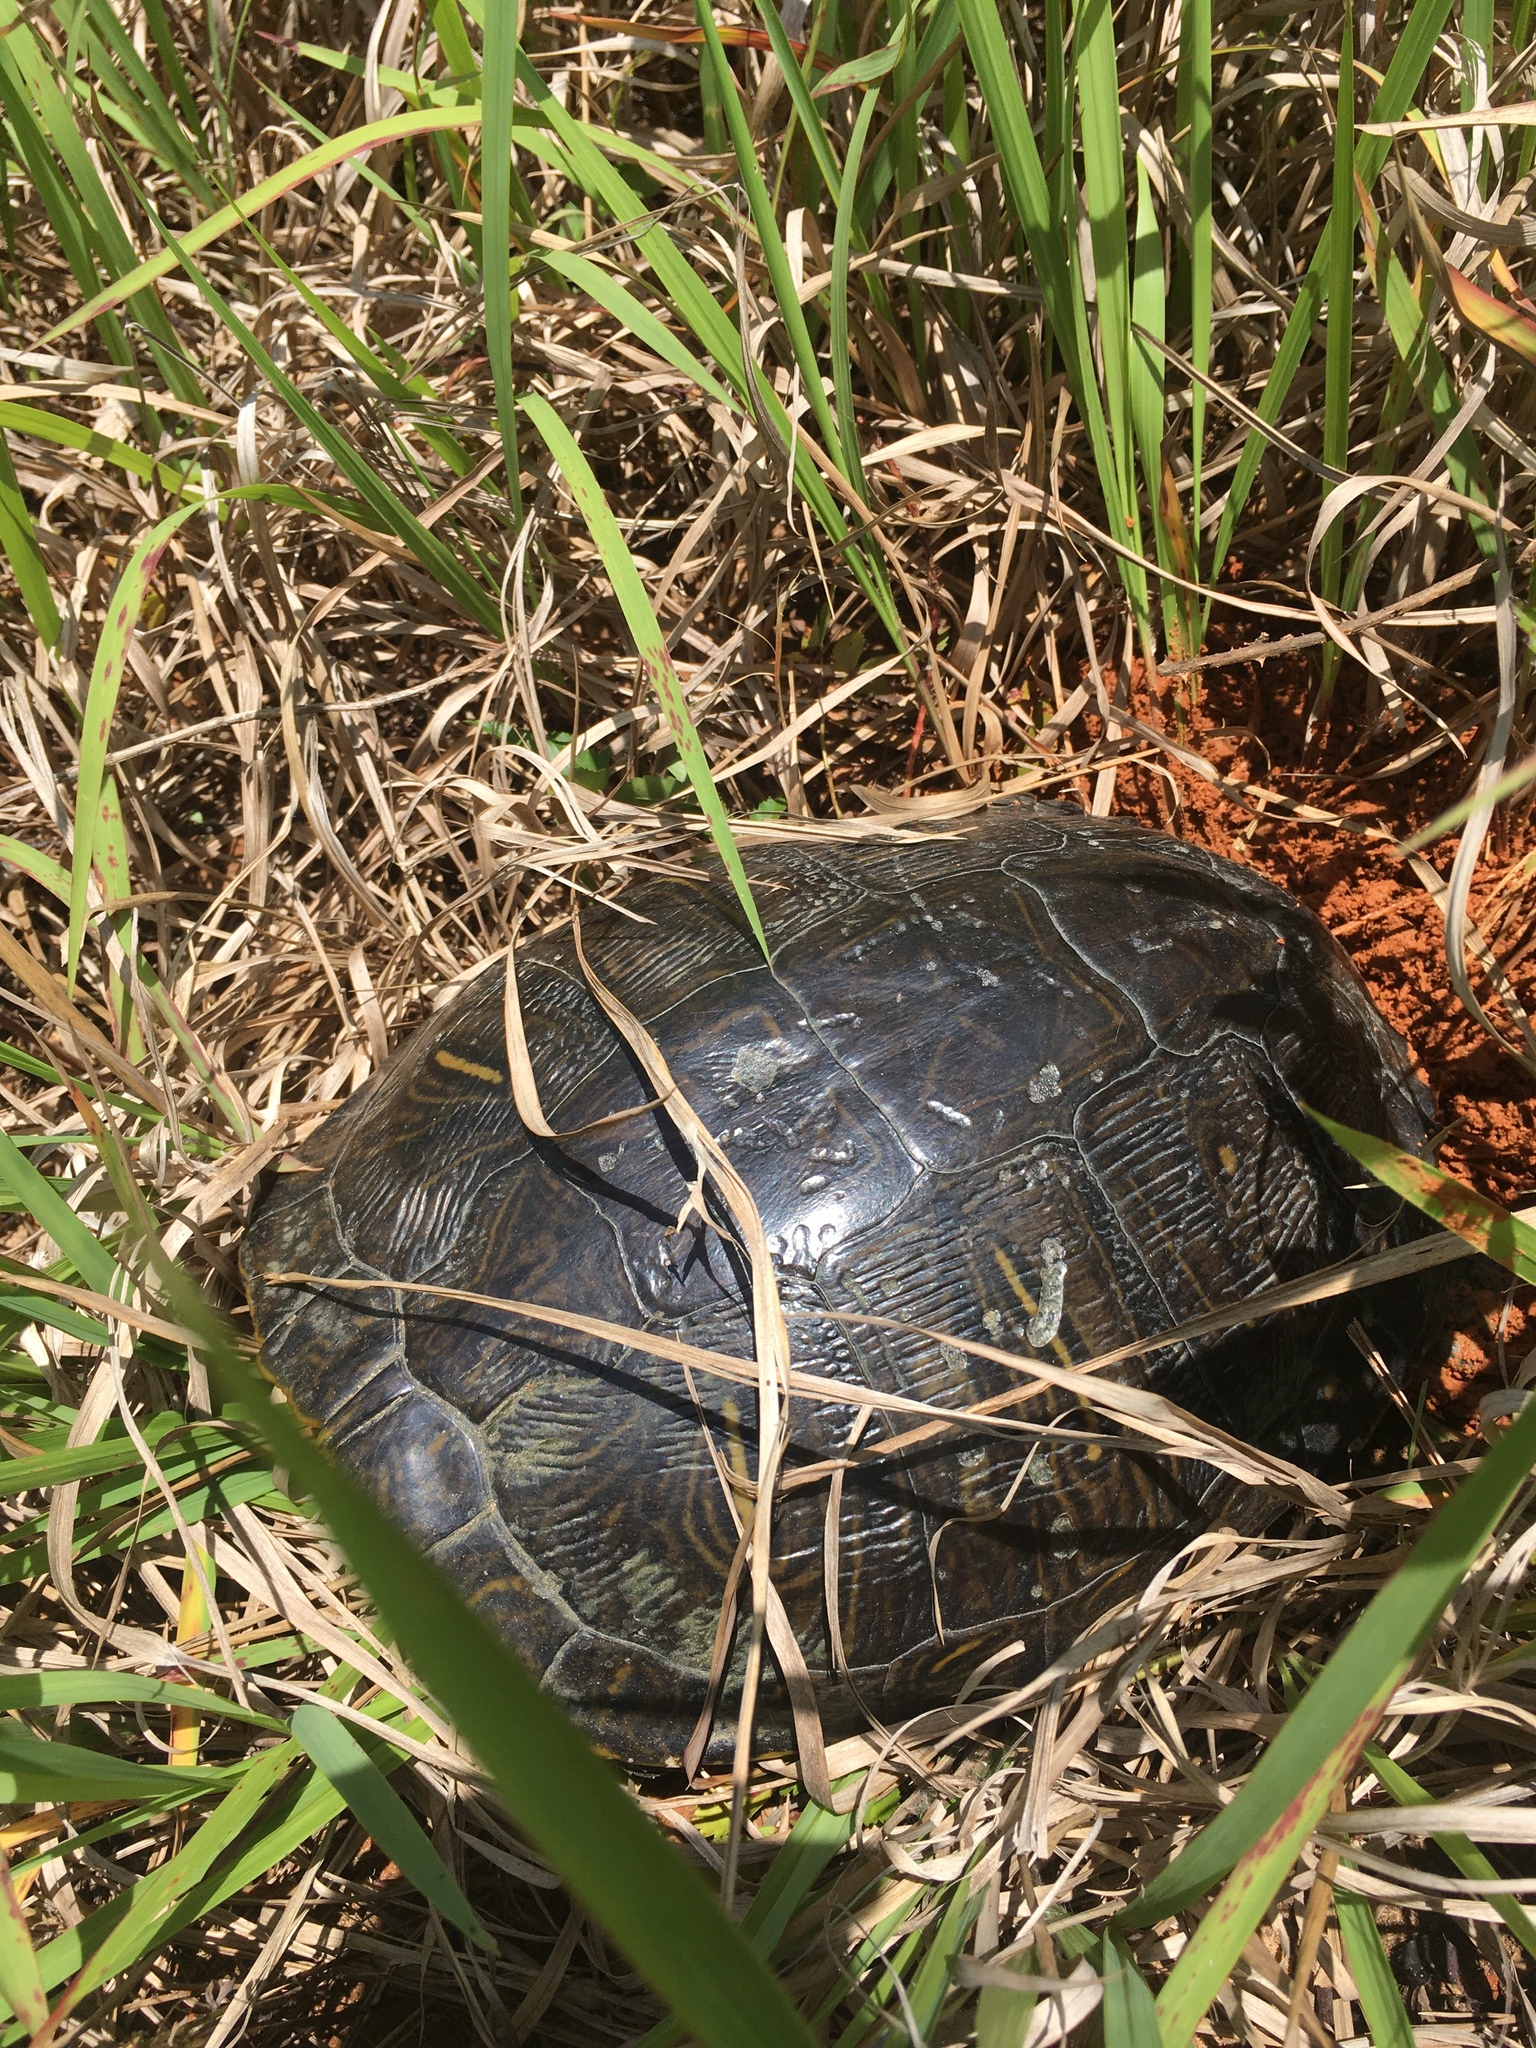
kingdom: Animalia
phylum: Chordata
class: Testudines
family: Emydidae
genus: Trachemys
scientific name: Trachemys scripta
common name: Slider
